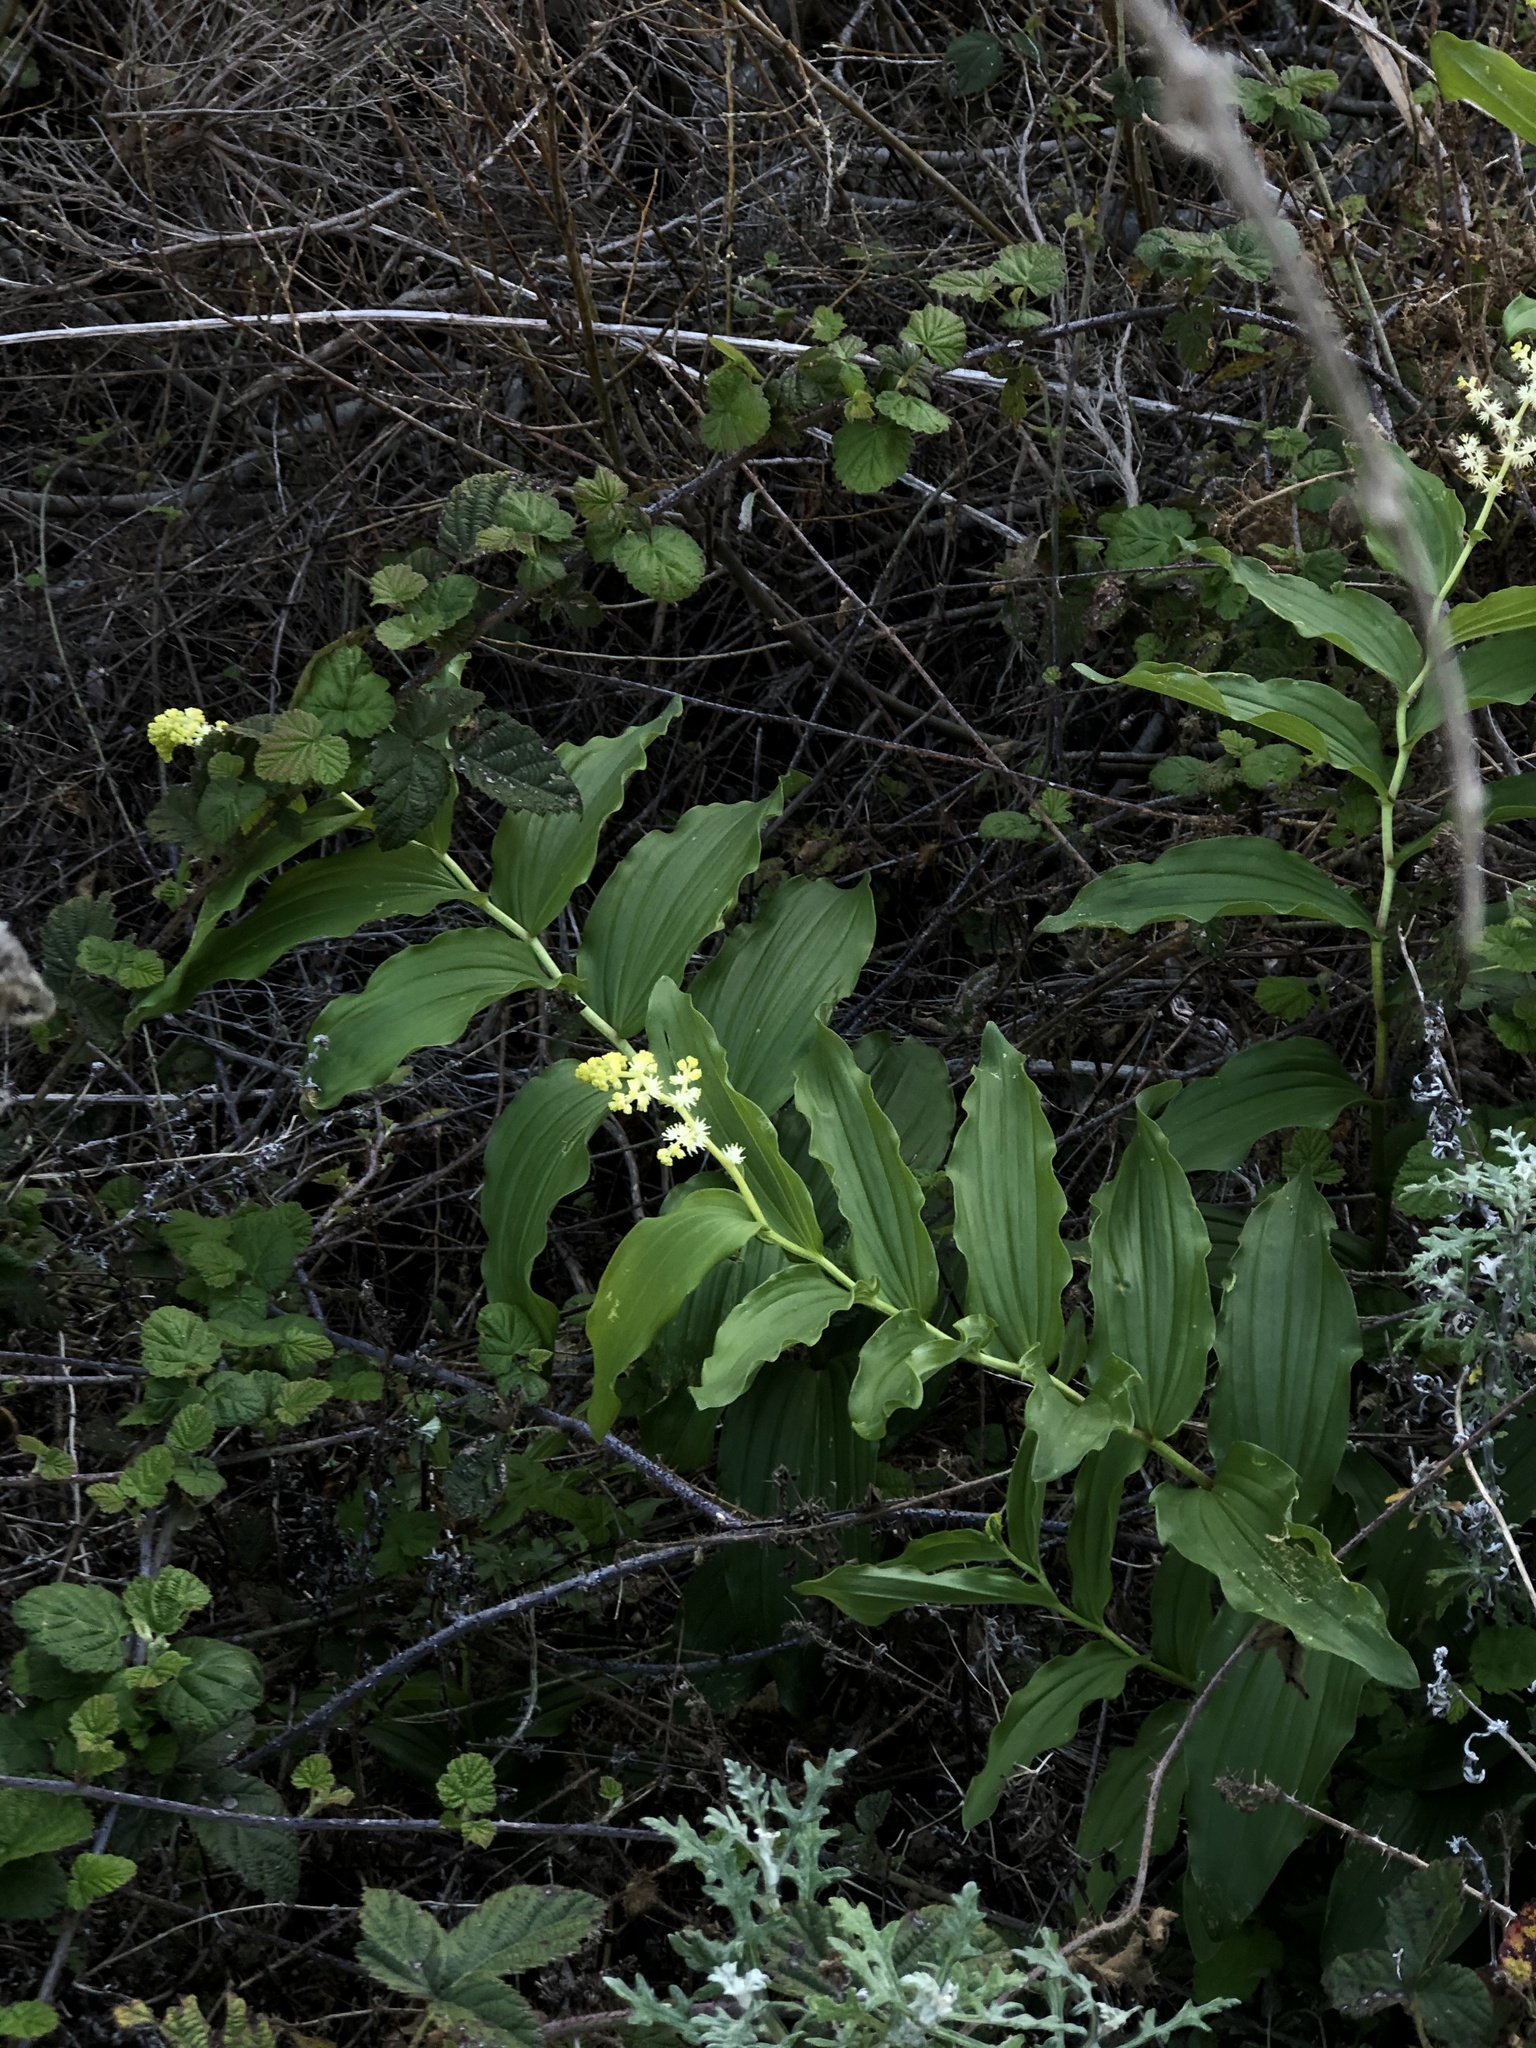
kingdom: Plantae
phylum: Tracheophyta
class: Liliopsida
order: Asparagales
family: Asparagaceae
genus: Maianthemum
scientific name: Maianthemum racemosum
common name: False spikenard
